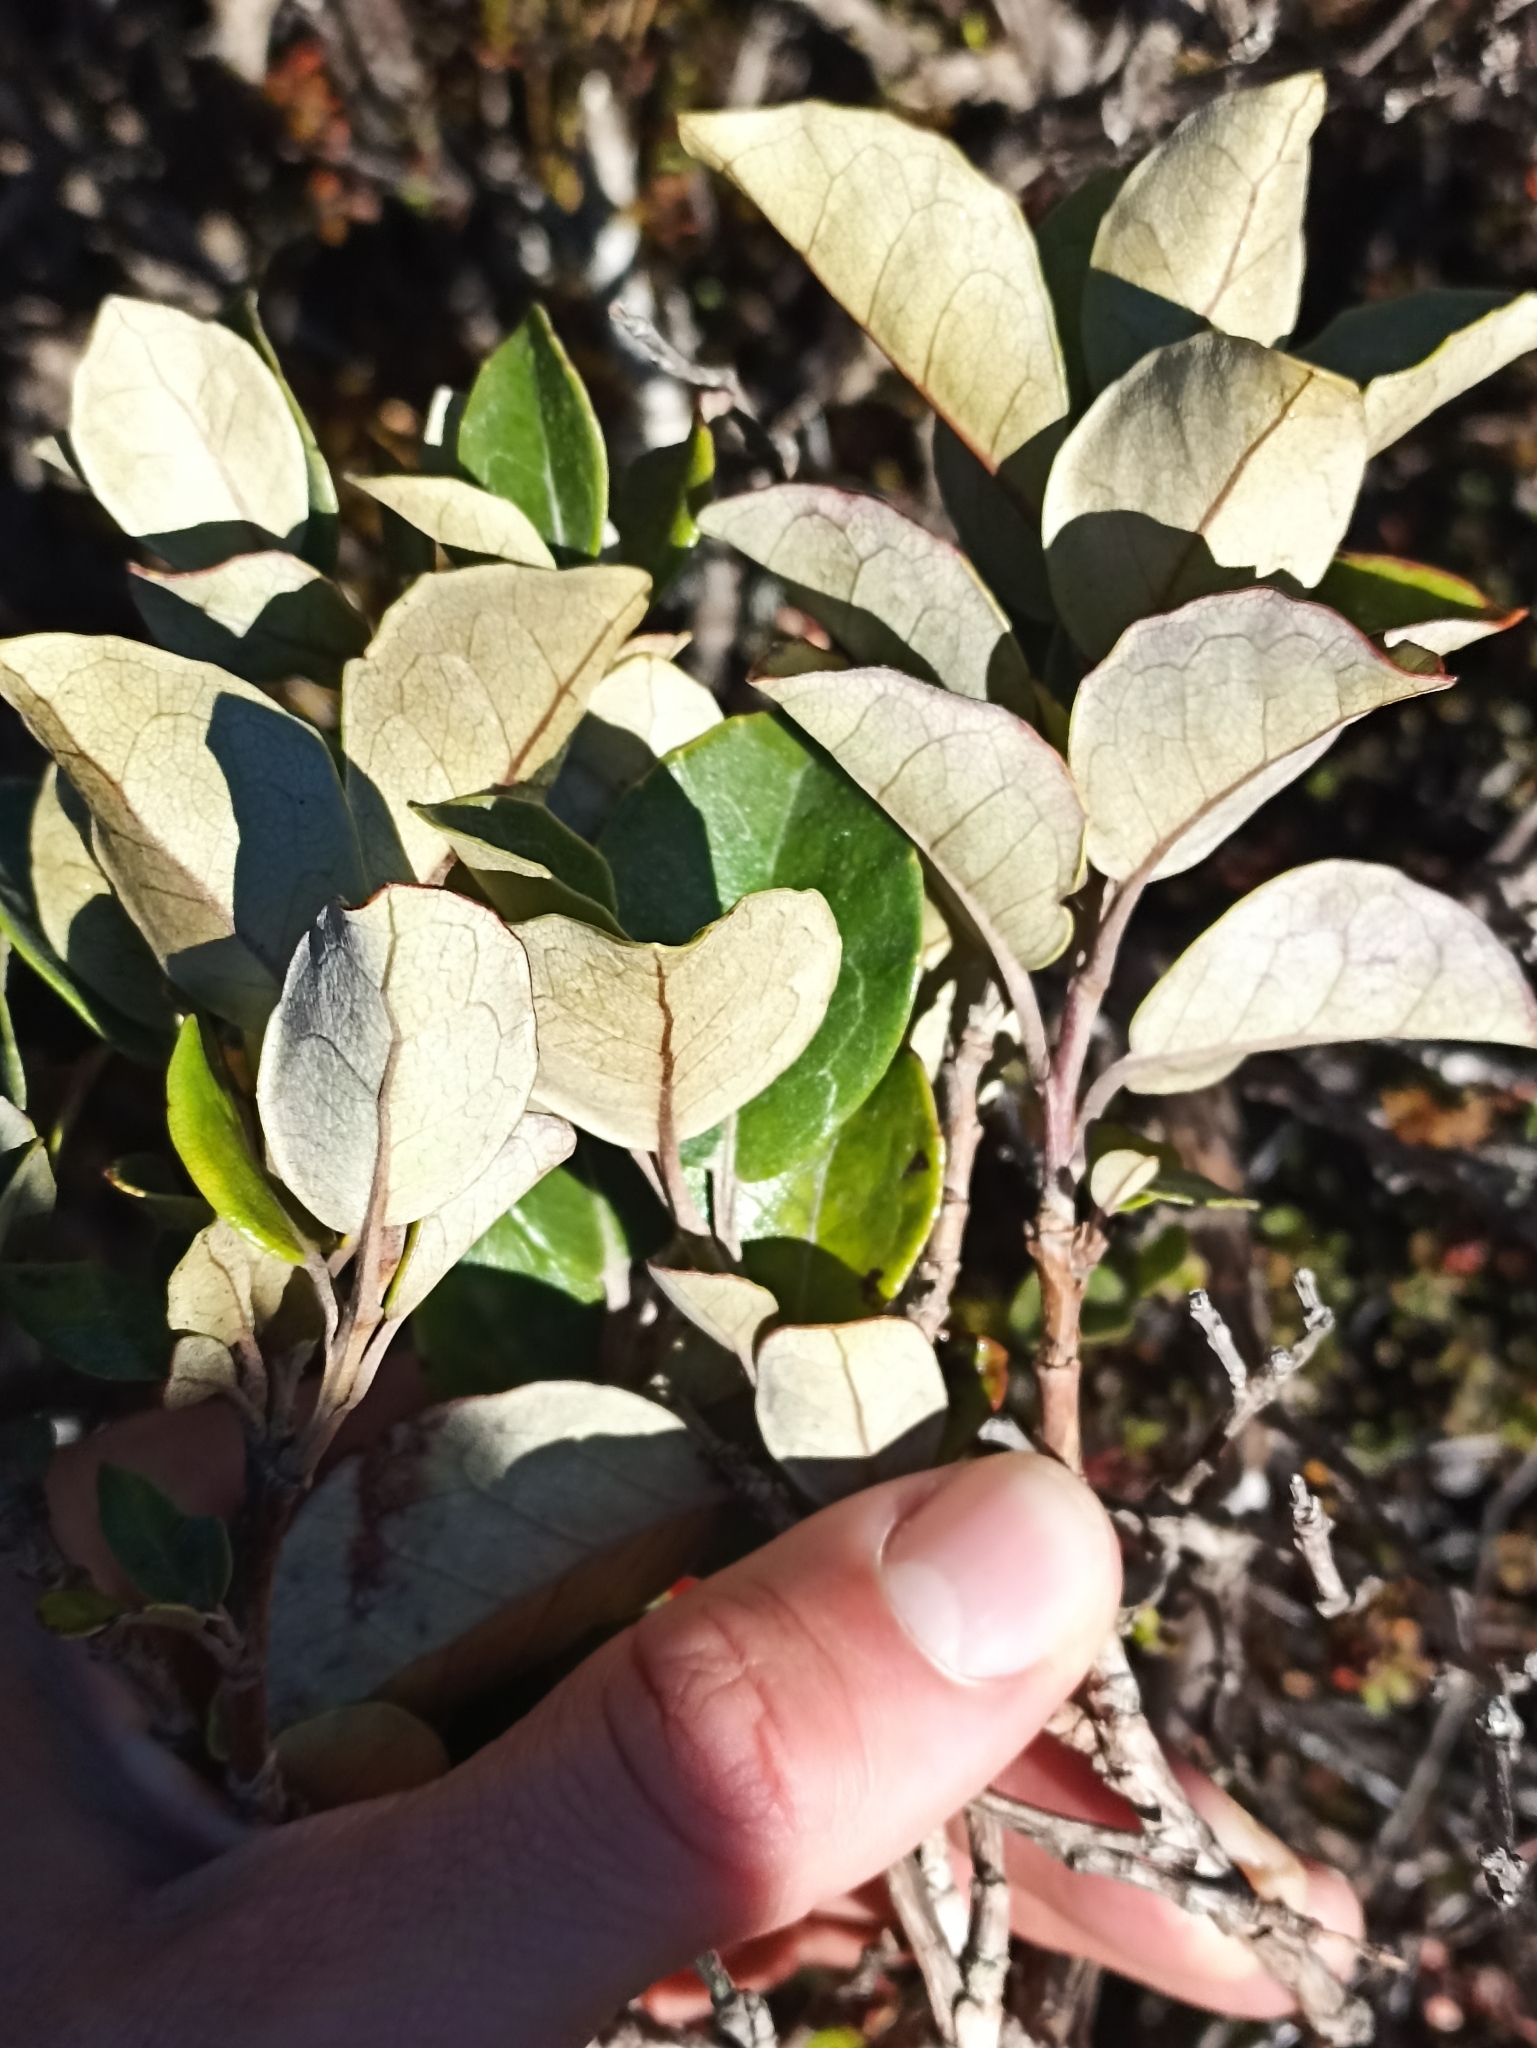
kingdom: Plantae
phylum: Tracheophyta
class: Magnoliopsida
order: Asterales
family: Asteraceae
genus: Olearia
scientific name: Olearia arborescens
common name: Glossy tree daisy
